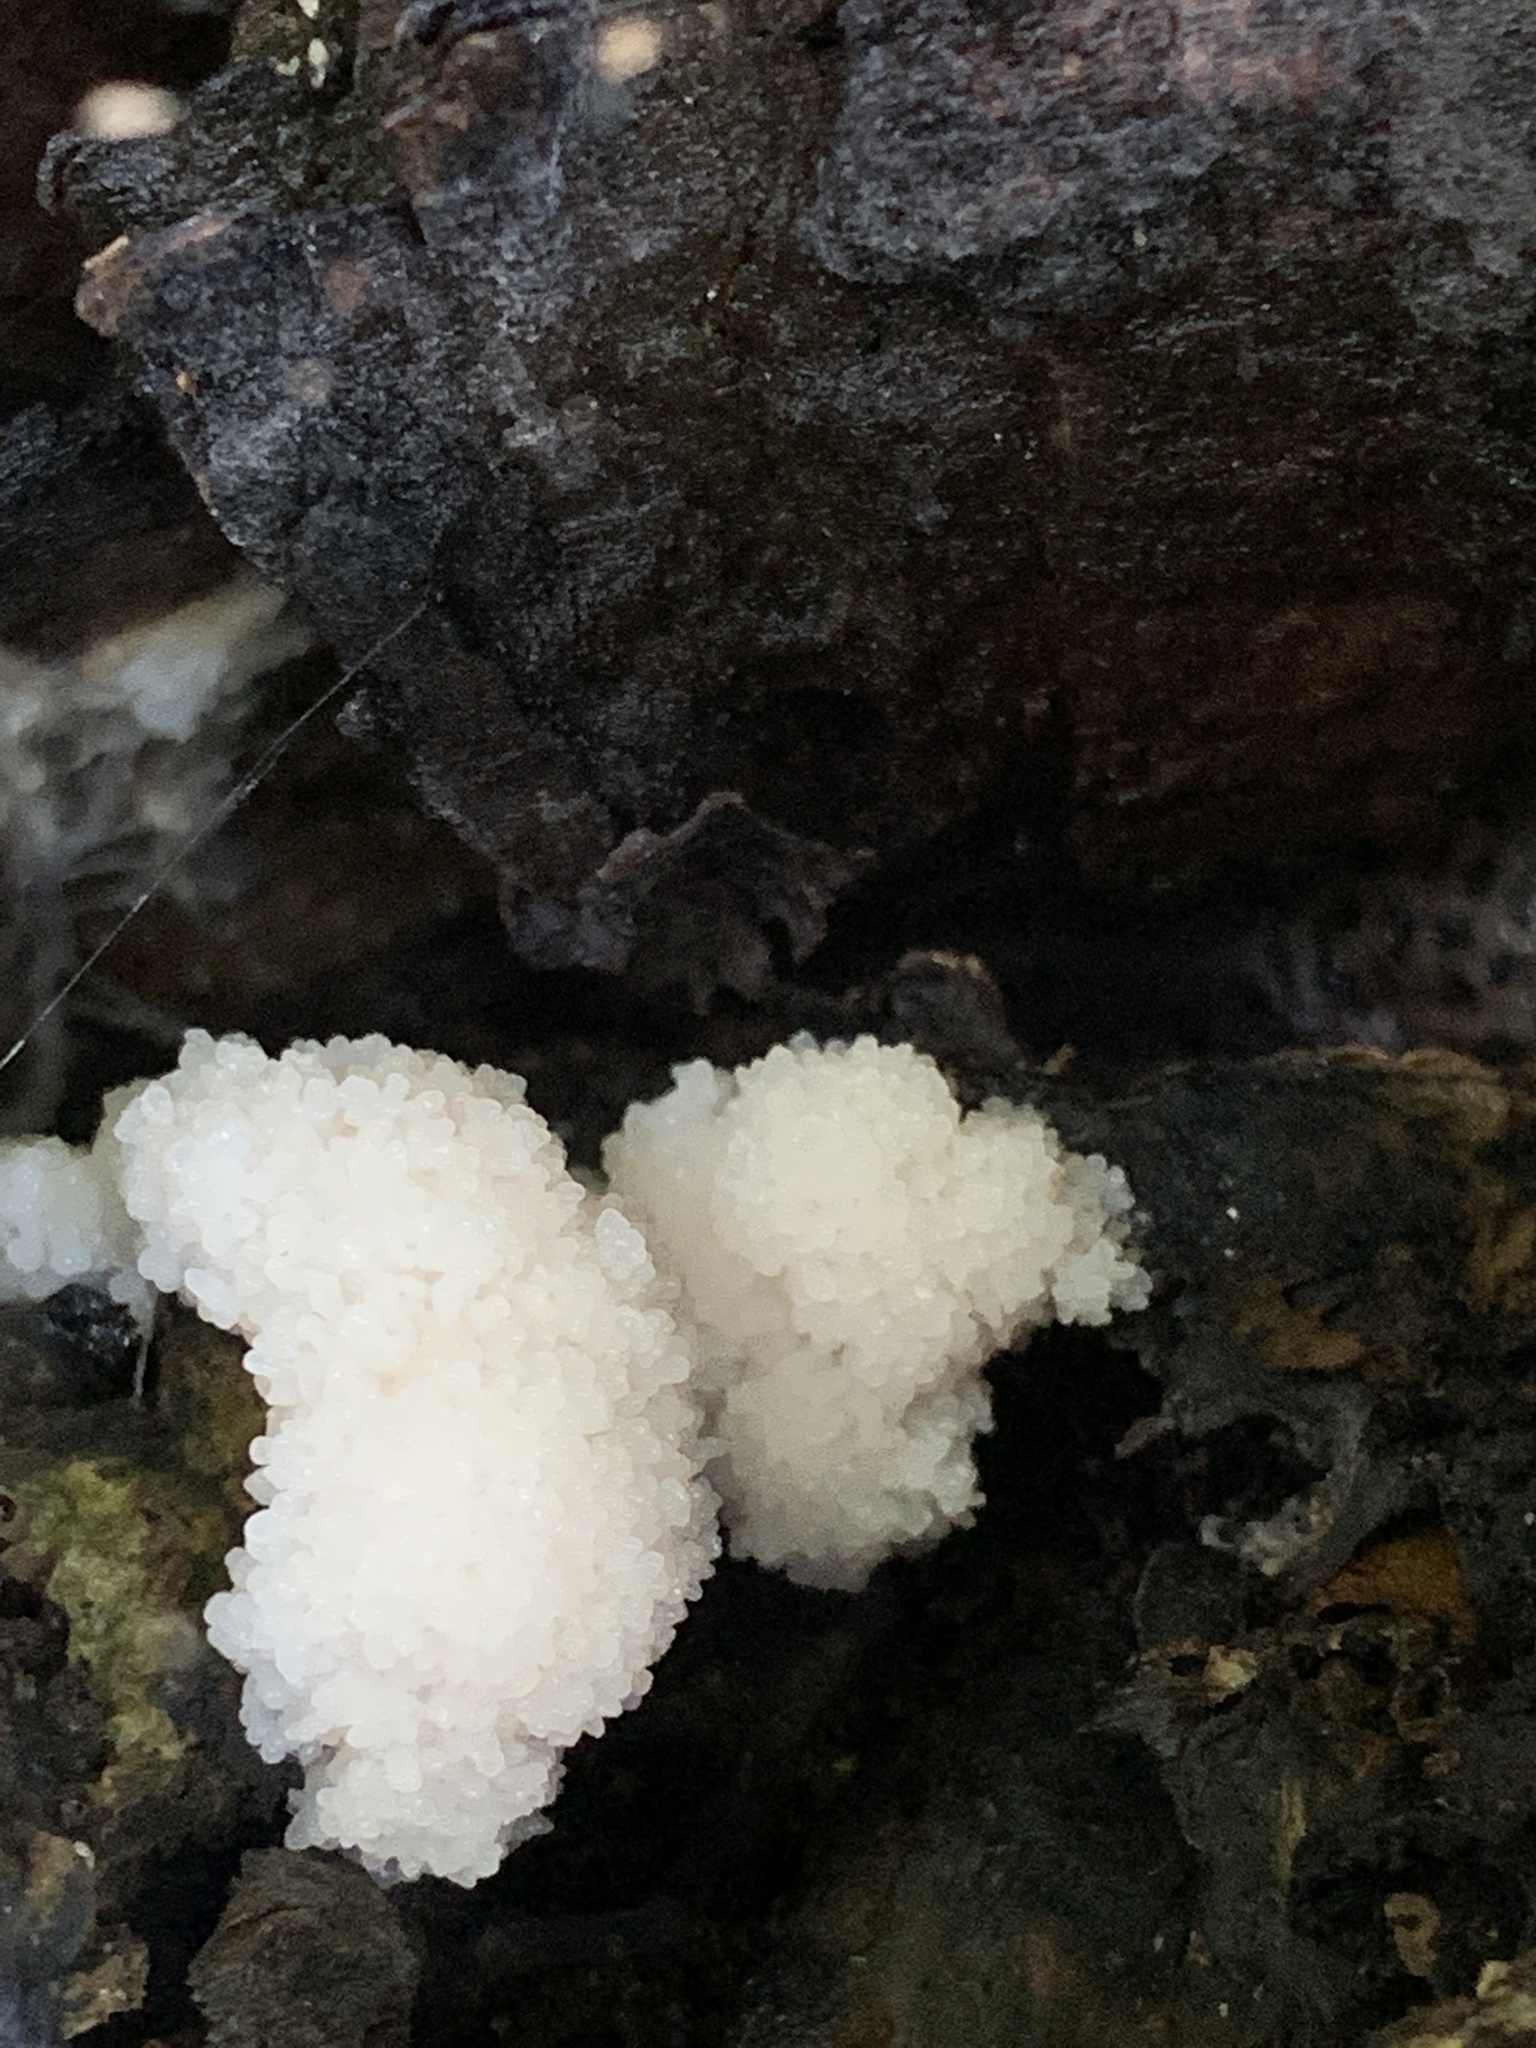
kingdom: Animalia
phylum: Mollusca
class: Gastropoda
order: Stylommatophora
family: Limacidae
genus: Limax
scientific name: Limax maximus
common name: Great grey slug
